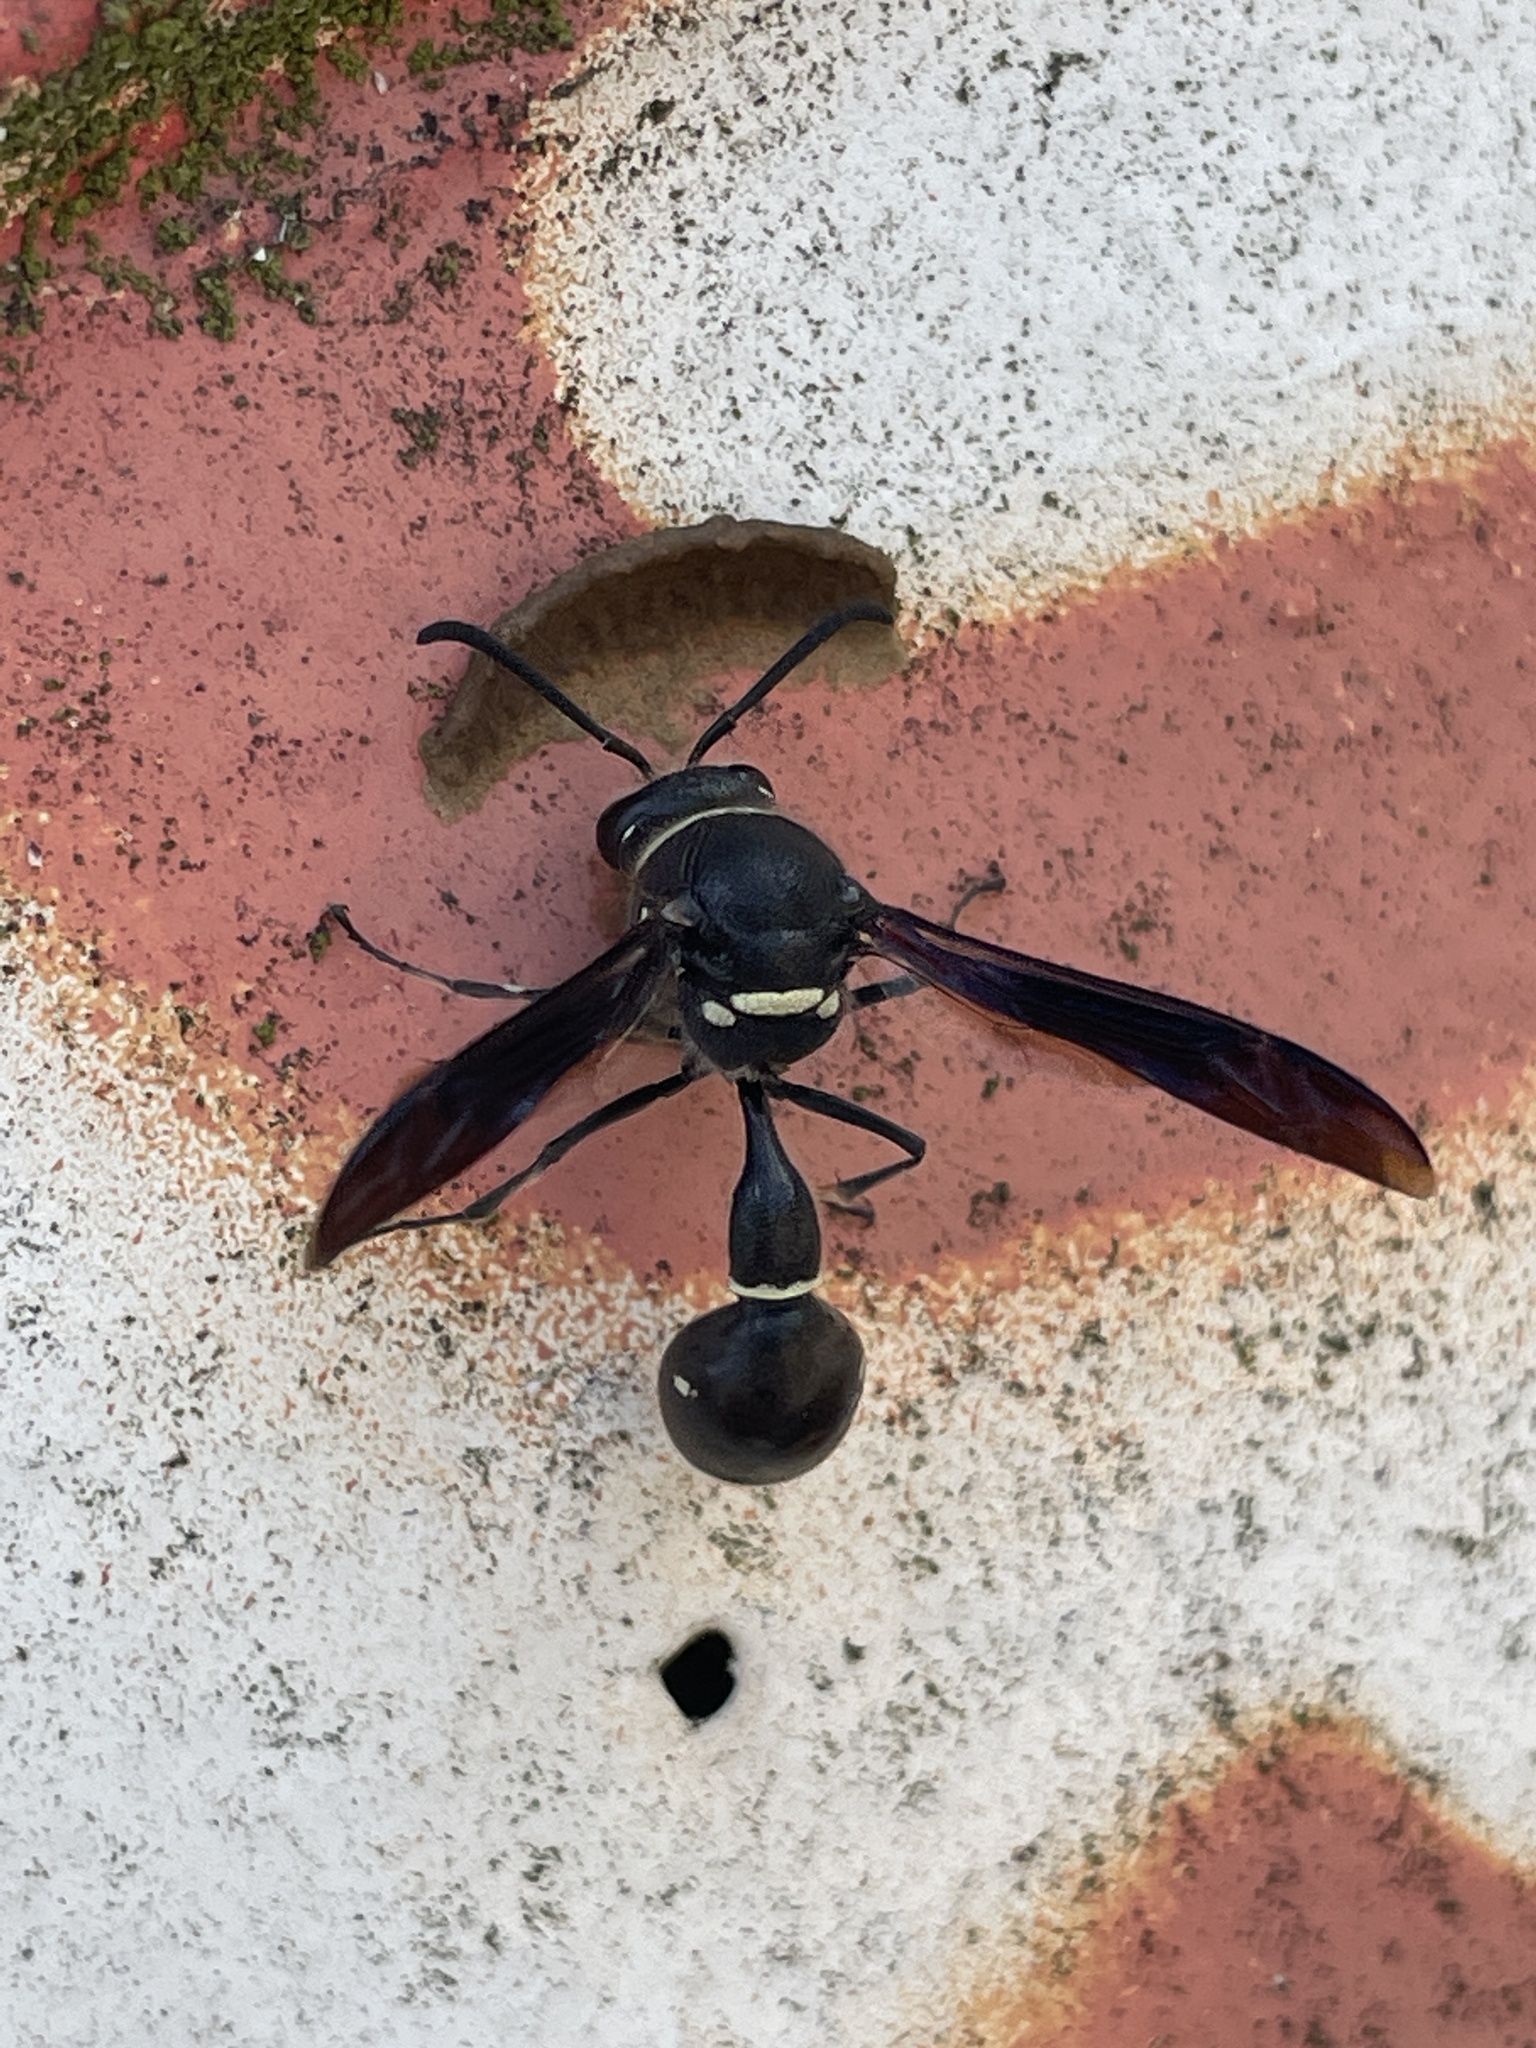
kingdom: Animalia
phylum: Arthropoda
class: Insecta
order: Hymenoptera
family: Vespidae
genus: Eumenes
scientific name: Eumenes fraternus
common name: Fraternal potter wasp
